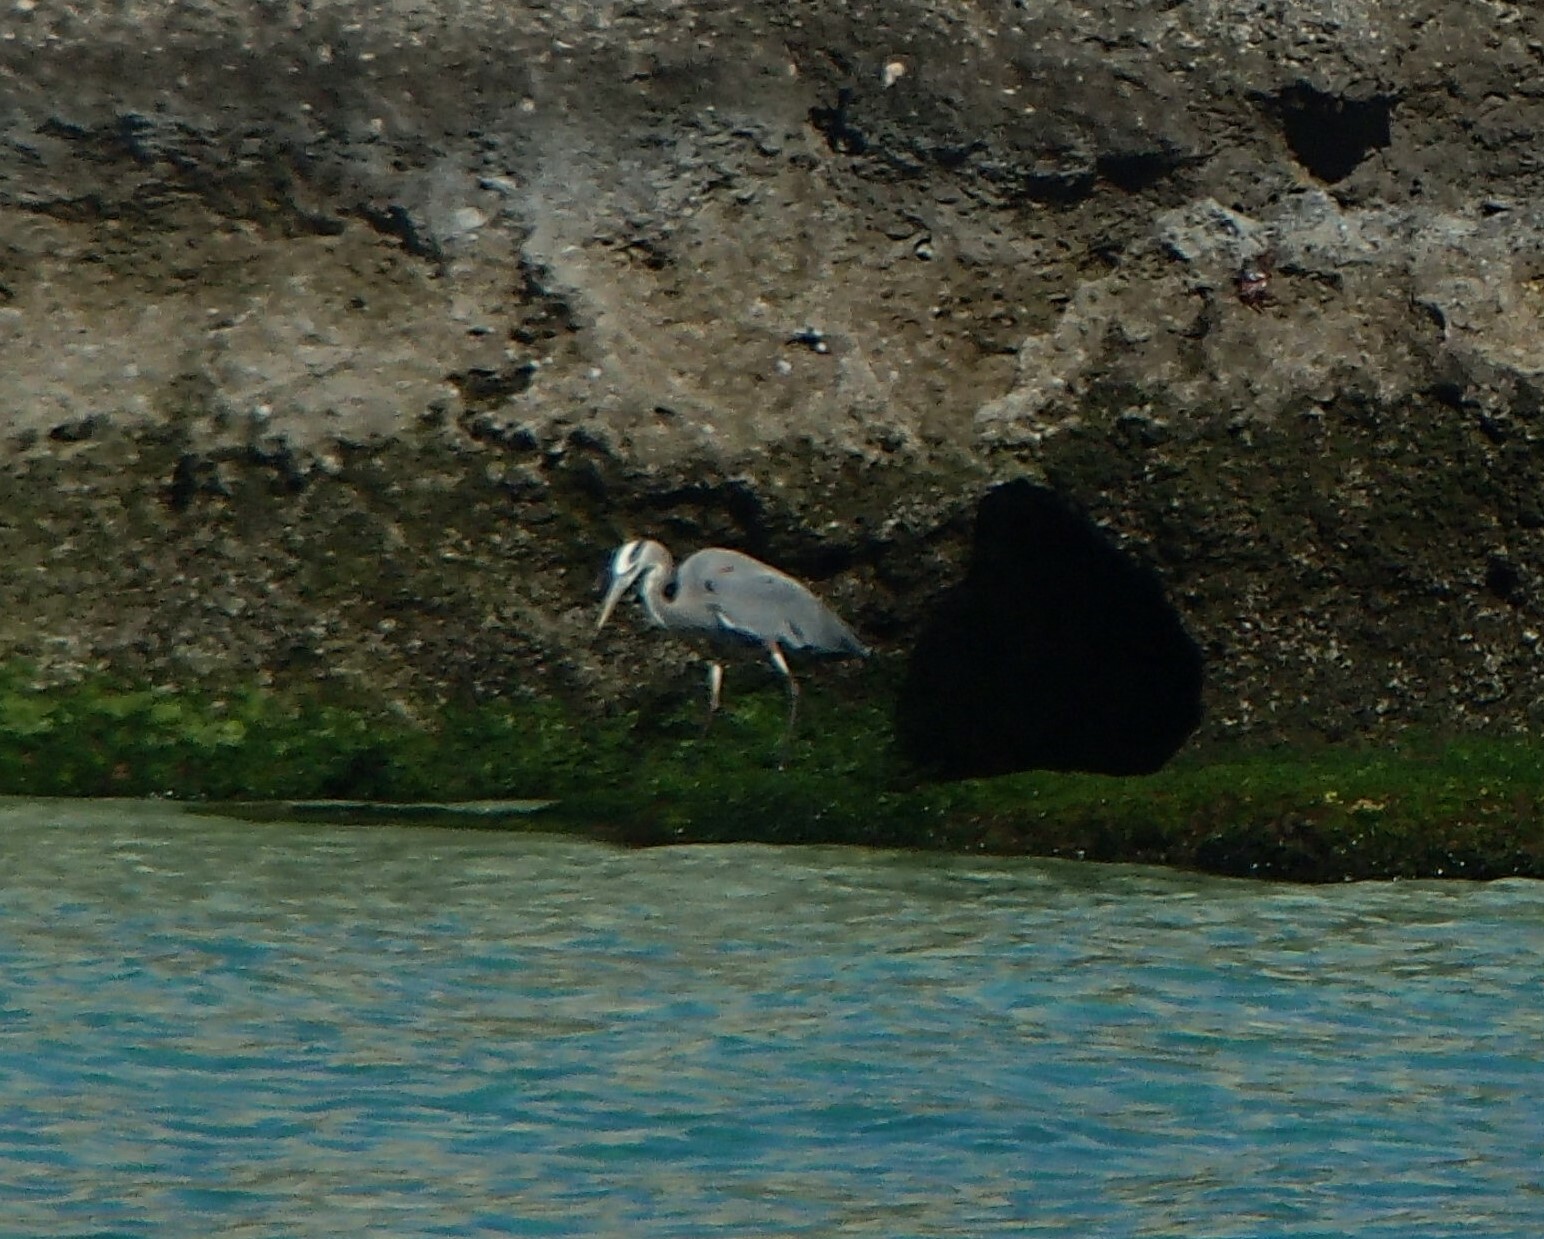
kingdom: Animalia
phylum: Chordata
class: Aves
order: Pelecaniformes
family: Ardeidae
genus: Ardea
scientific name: Ardea herodias
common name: Great blue heron
